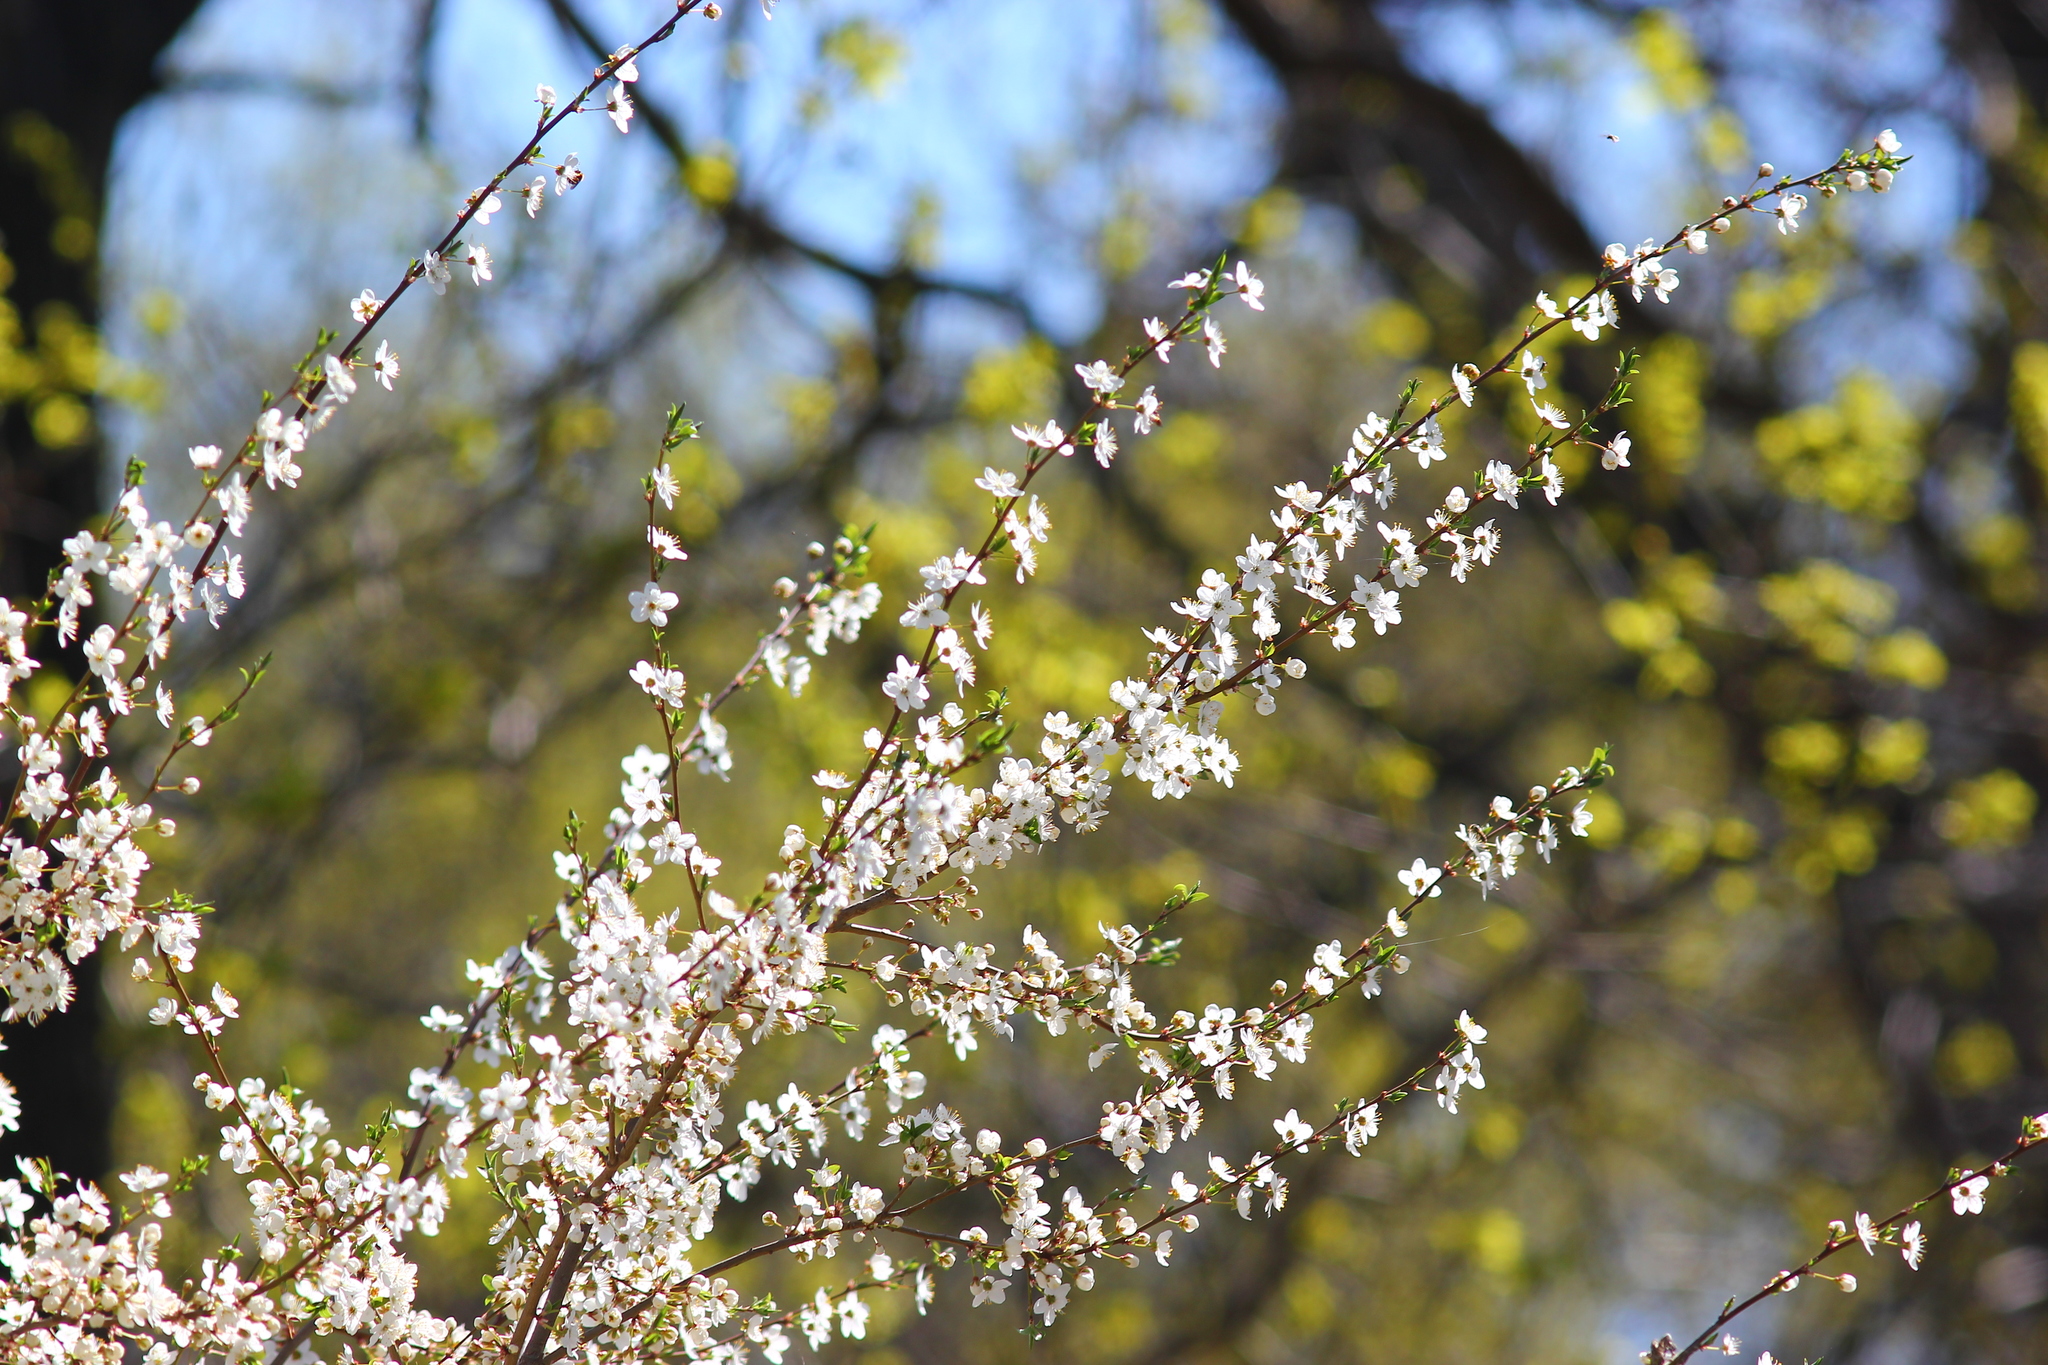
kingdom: Plantae
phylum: Tracheophyta
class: Magnoliopsida
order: Rosales
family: Rosaceae
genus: Prunus
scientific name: Prunus spinosa
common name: Blackthorn
